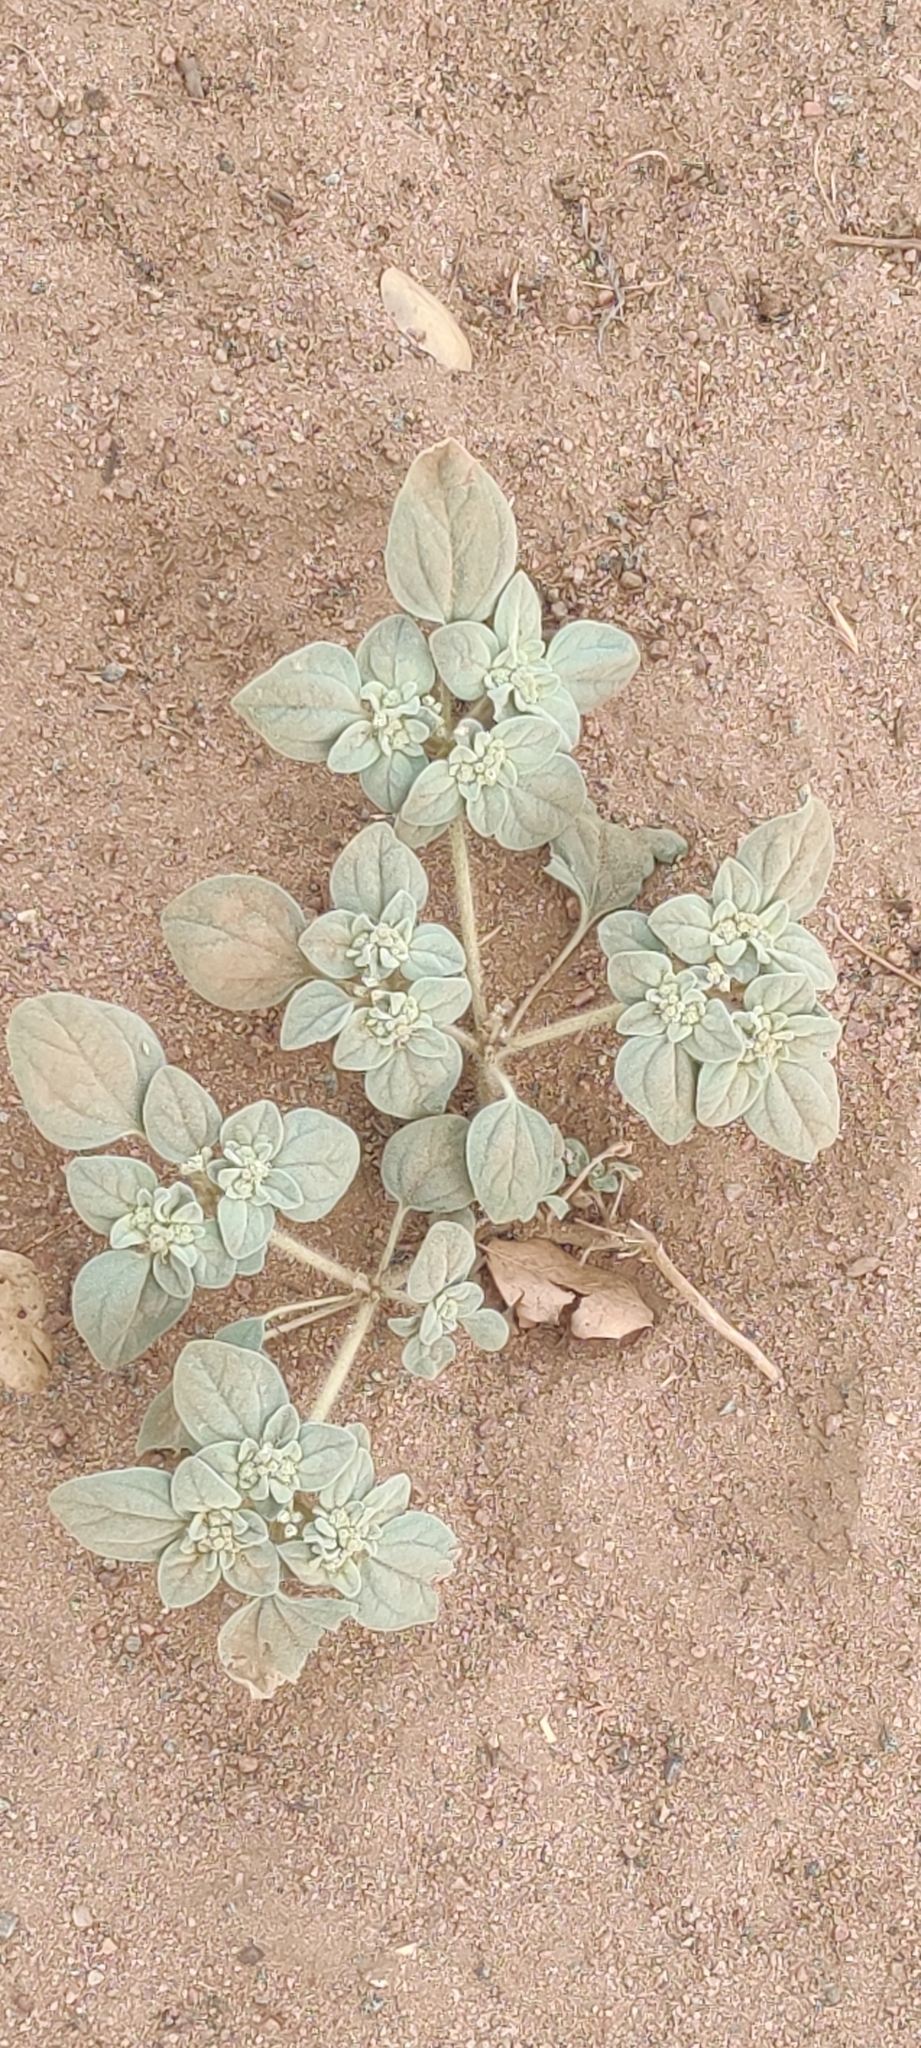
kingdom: Plantae
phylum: Tracheophyta
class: Magnoliopsida
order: Malpighiales
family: Euphorbiaceae
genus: Croton
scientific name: Croton setiger
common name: Dove weed
